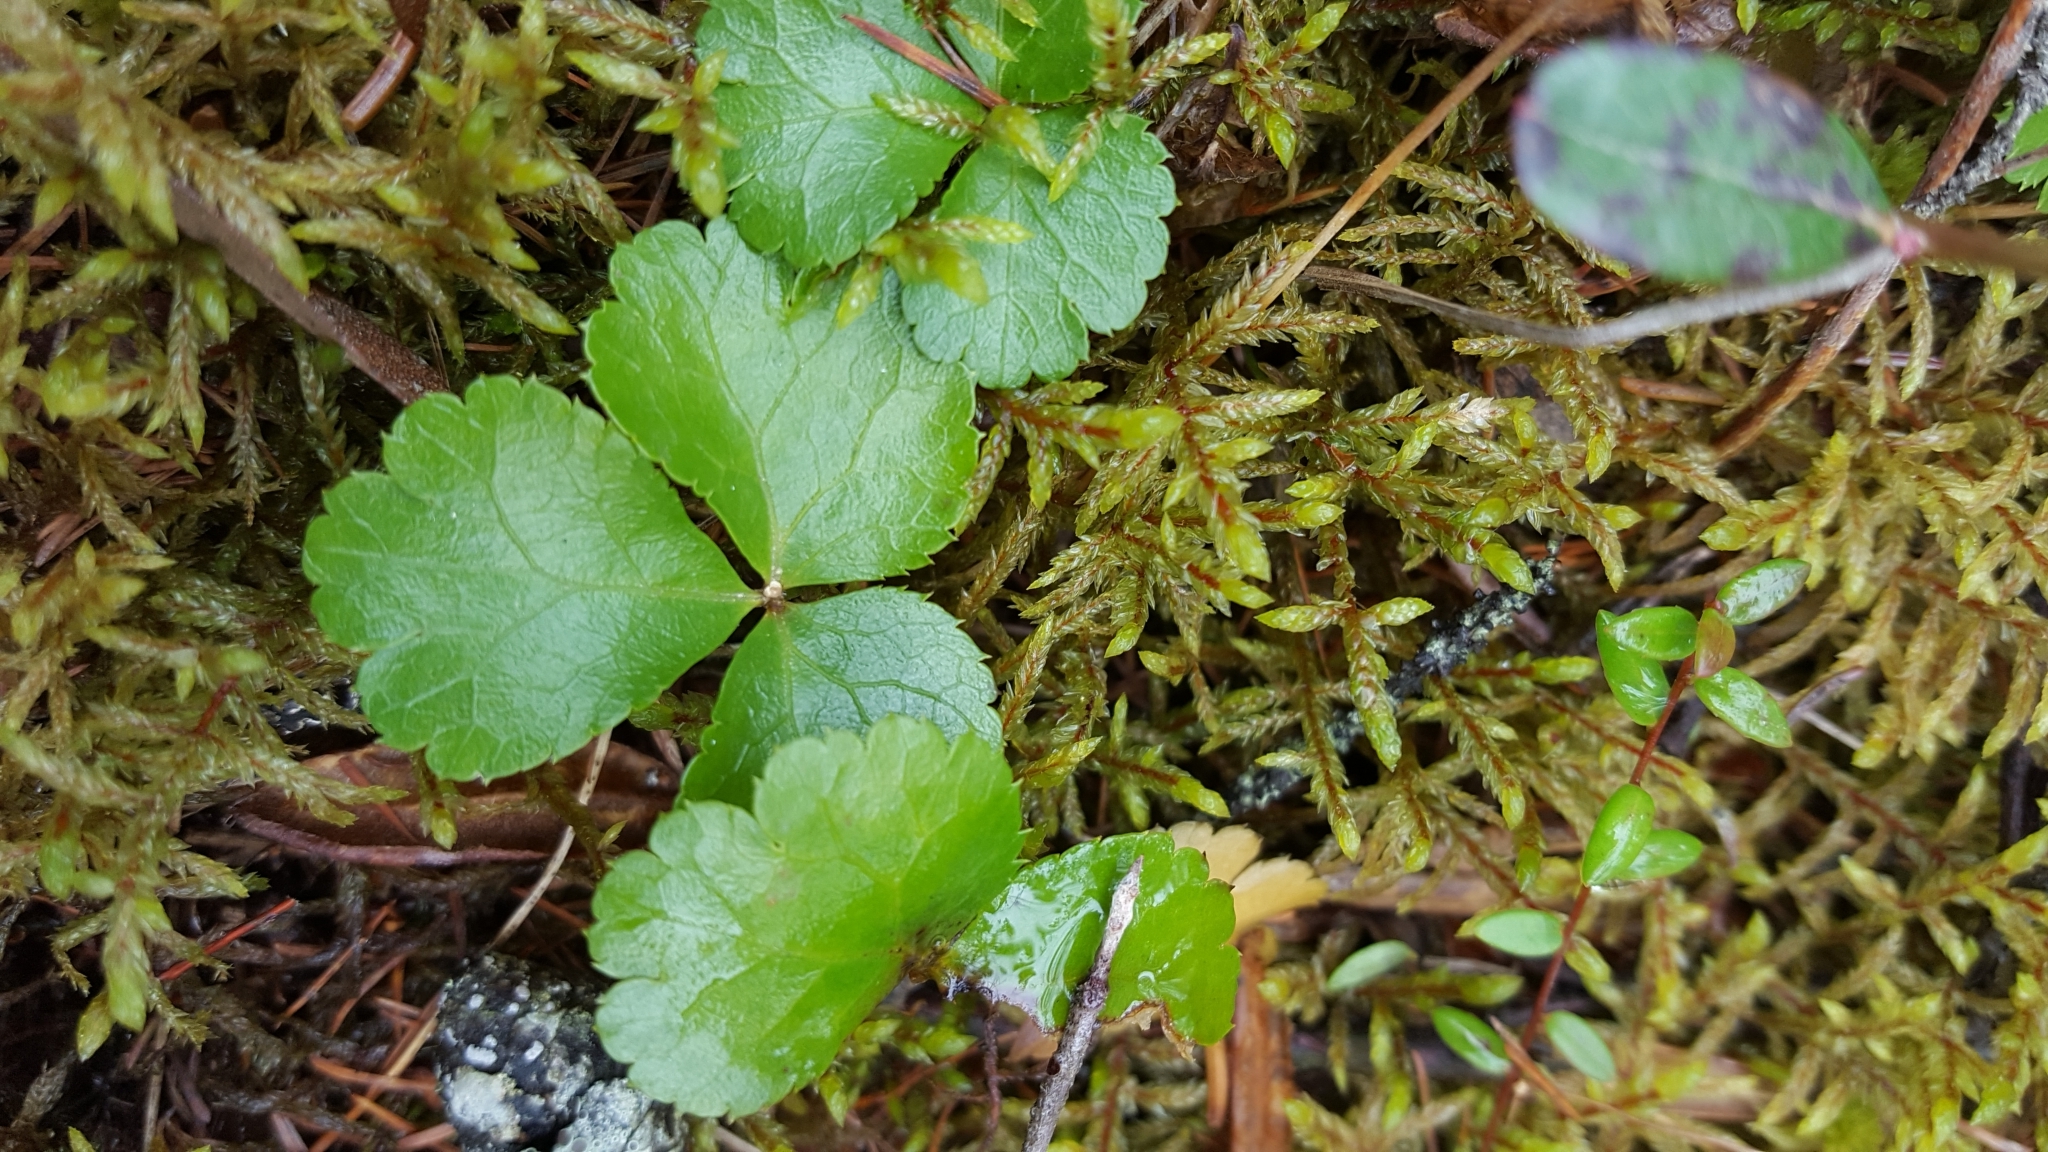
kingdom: Plantae
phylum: Tracheophyta
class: Magnoliopsida
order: Ranunculales
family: Ranunculaceae
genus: Coptis
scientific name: Coptis trifolia
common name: Canker-root
